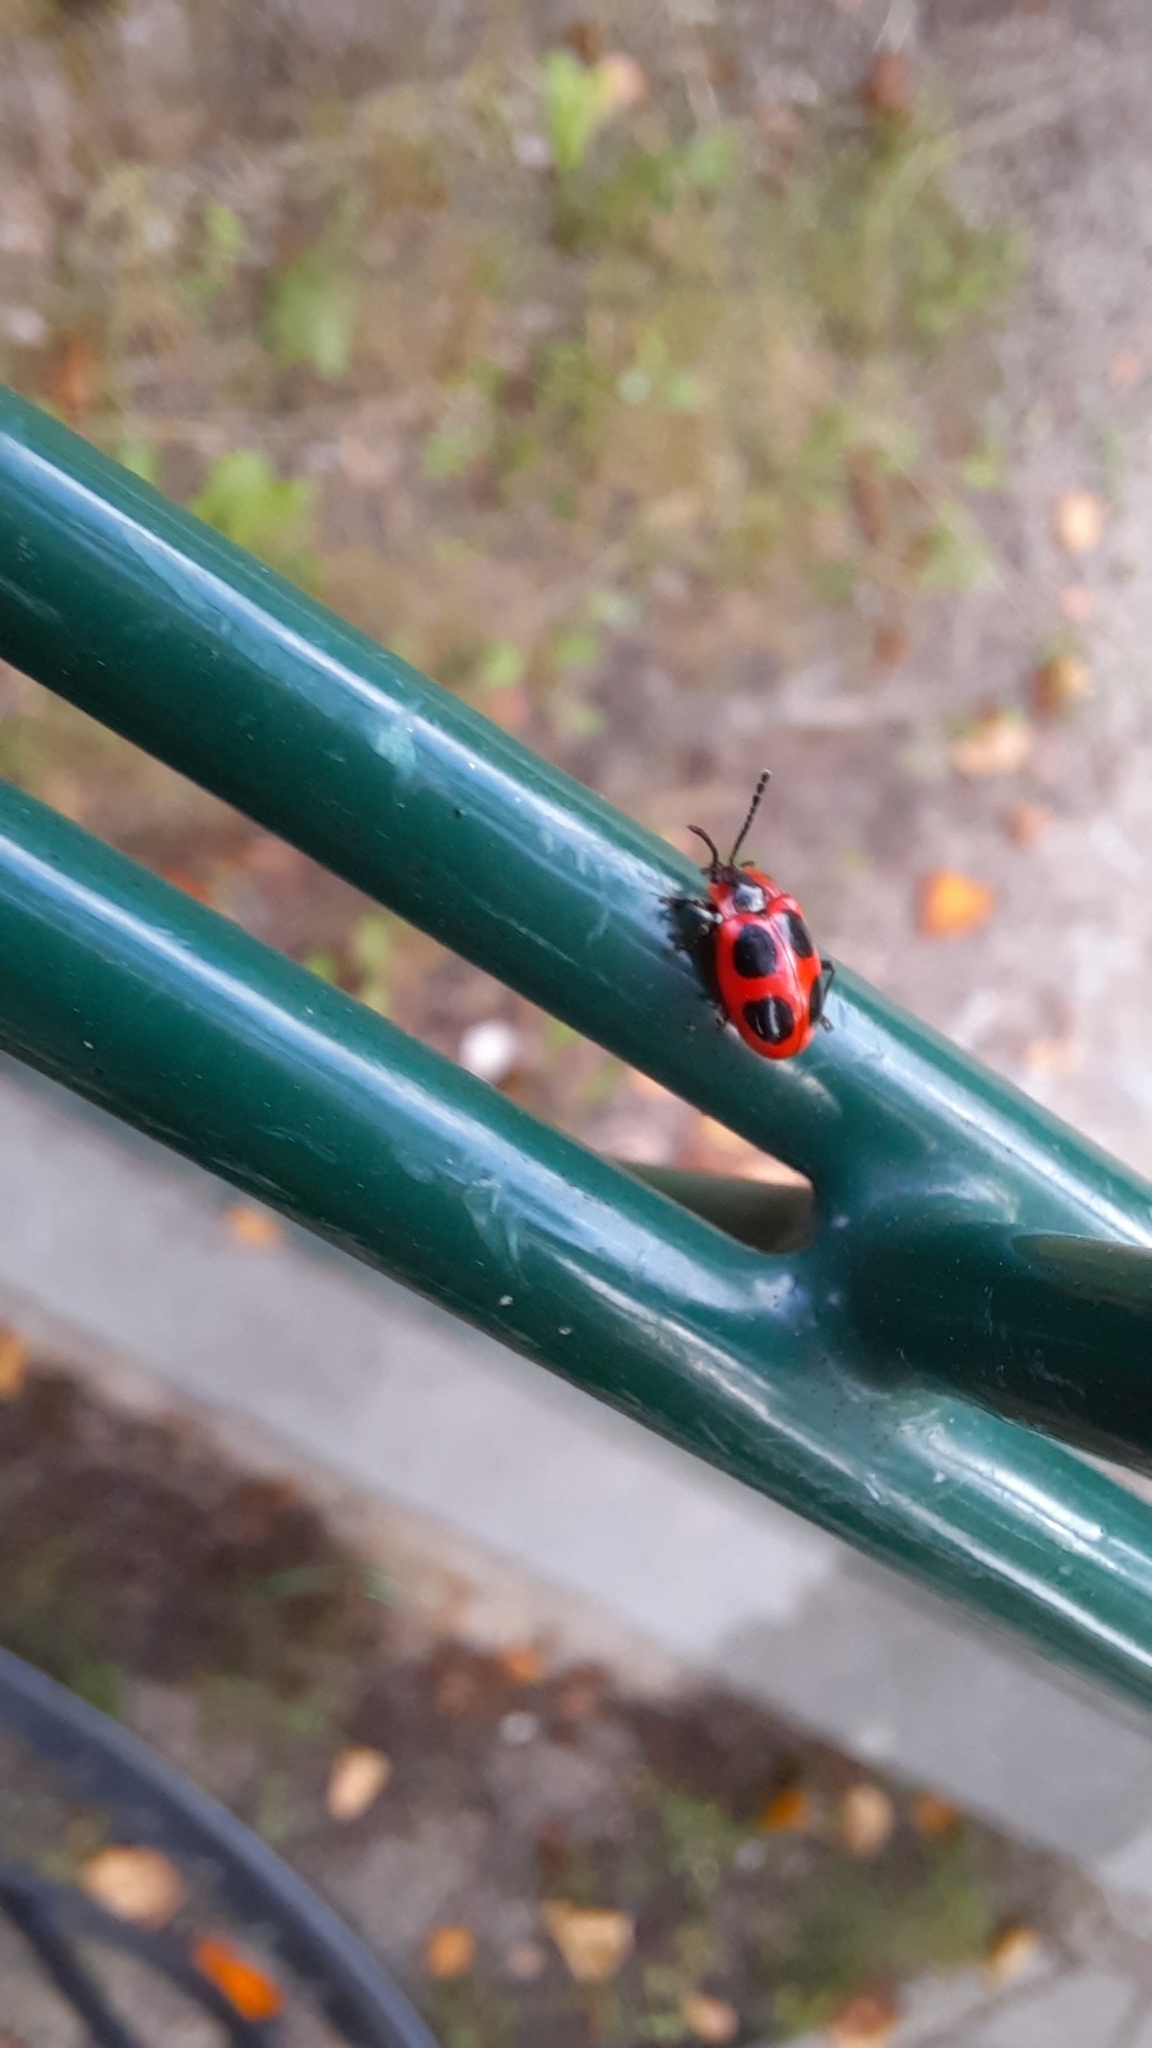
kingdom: Animalia
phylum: Arthropoda
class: Insecta
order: Coleoptera
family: Endomychidae
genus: Endomychus
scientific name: Endomychus coccineus
